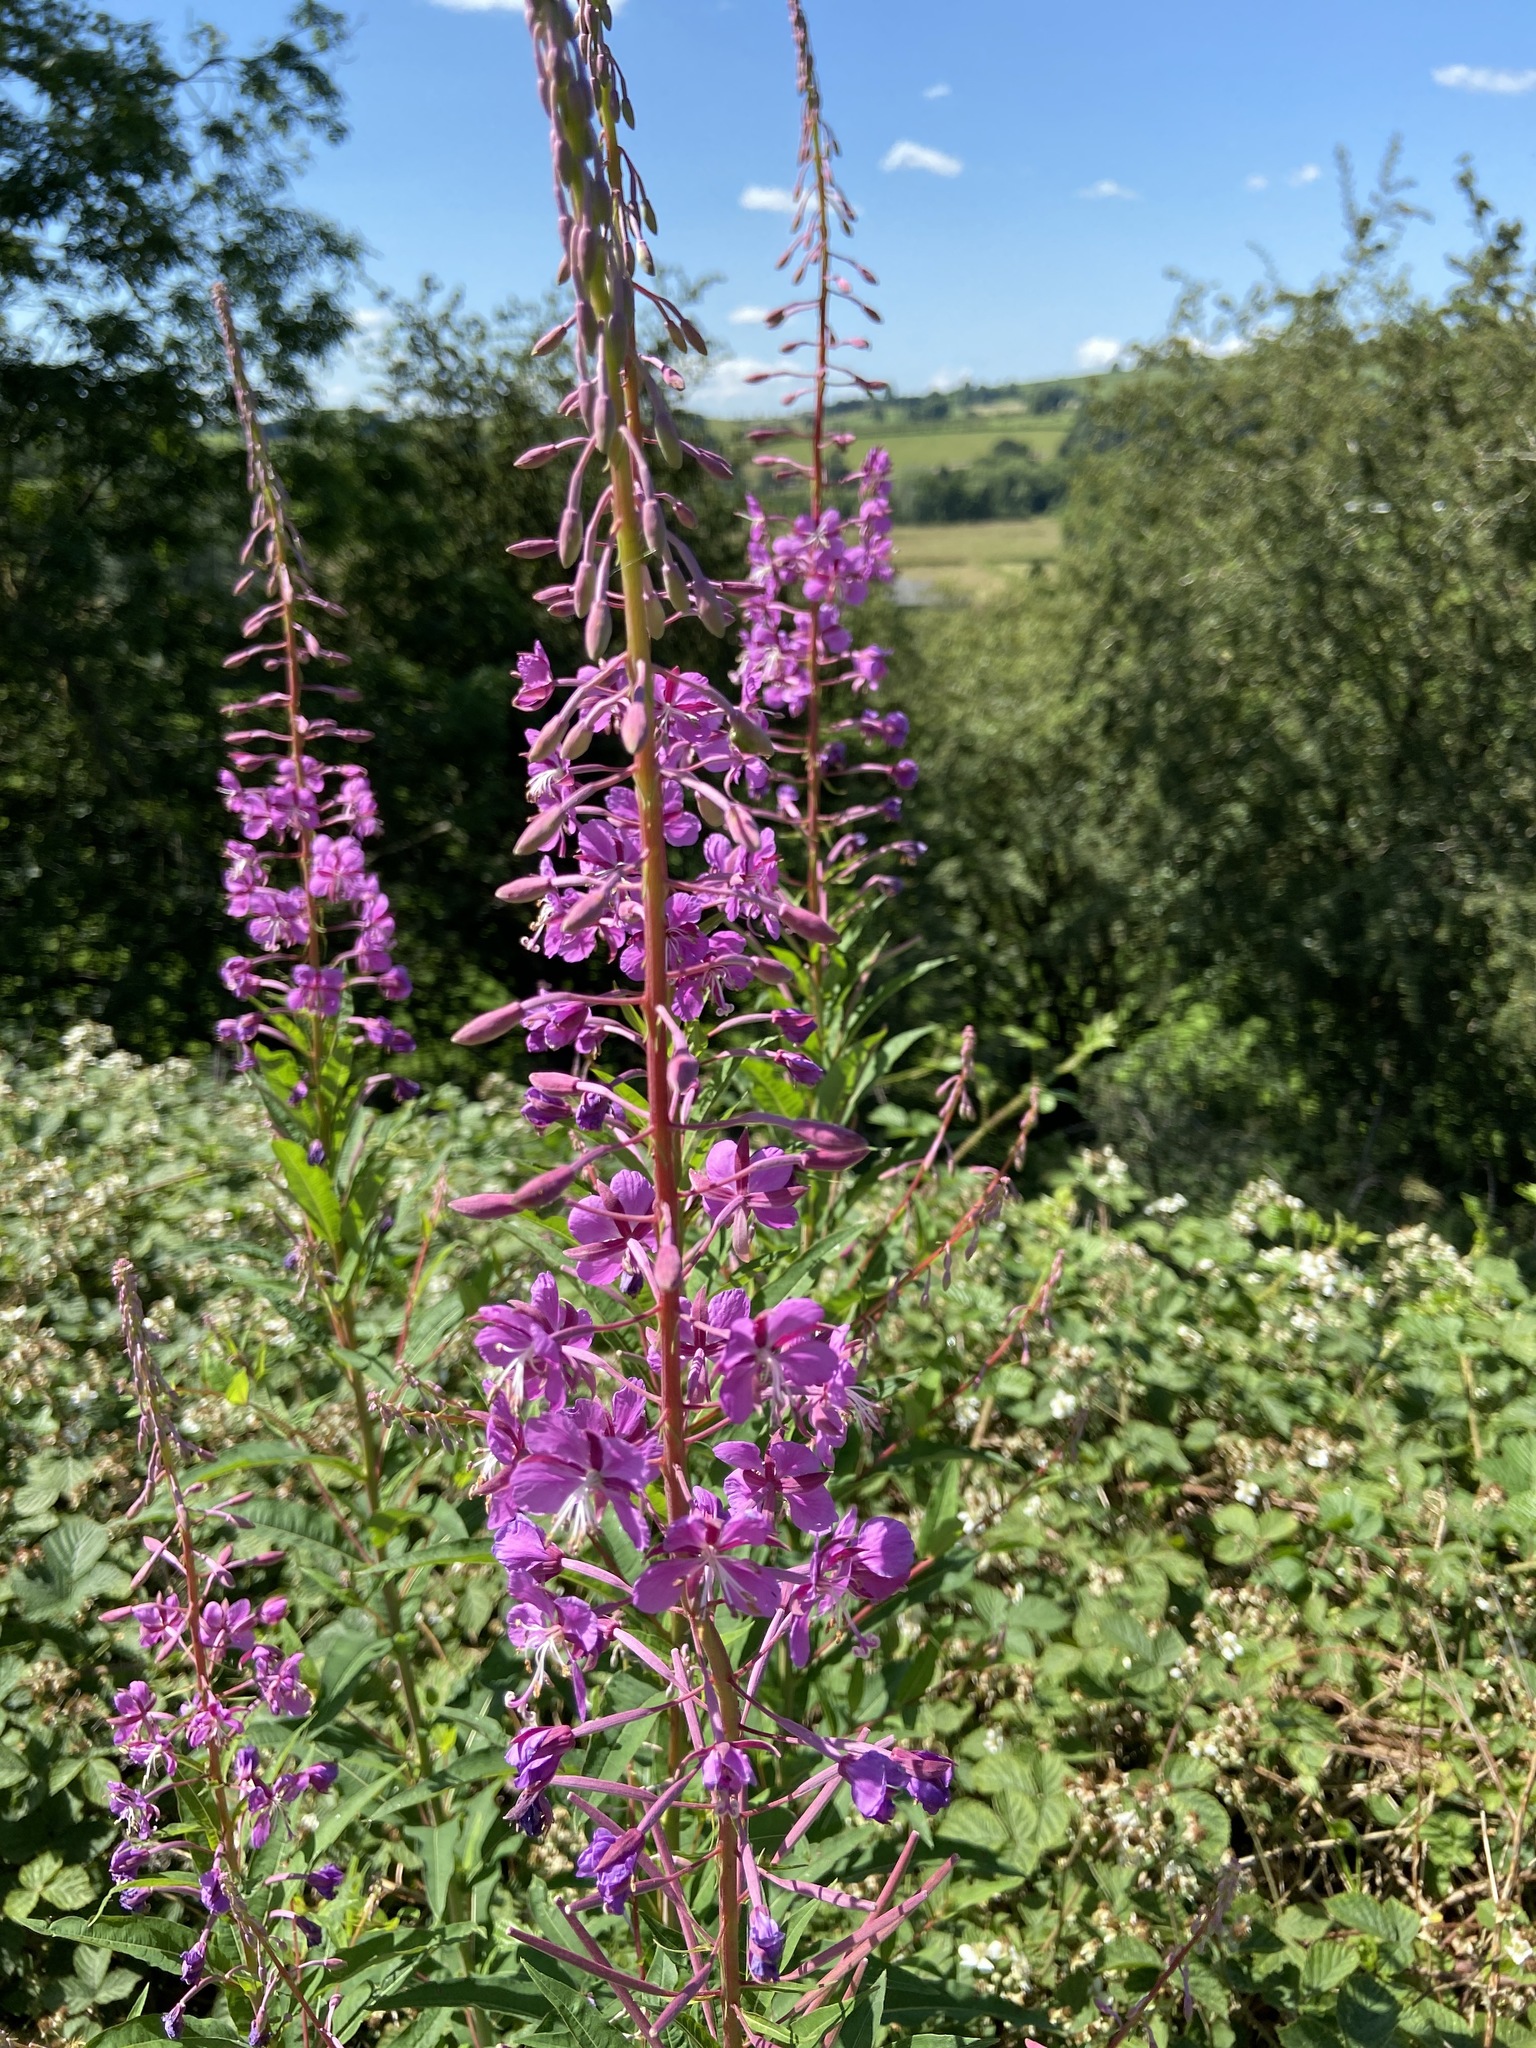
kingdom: Plantae
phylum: Tracheophyta
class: Magnoliopsida
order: Myrtales
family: Onagraceae
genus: Chamaenerion
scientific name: Chamaenerion angustifolium
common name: Fireweed
